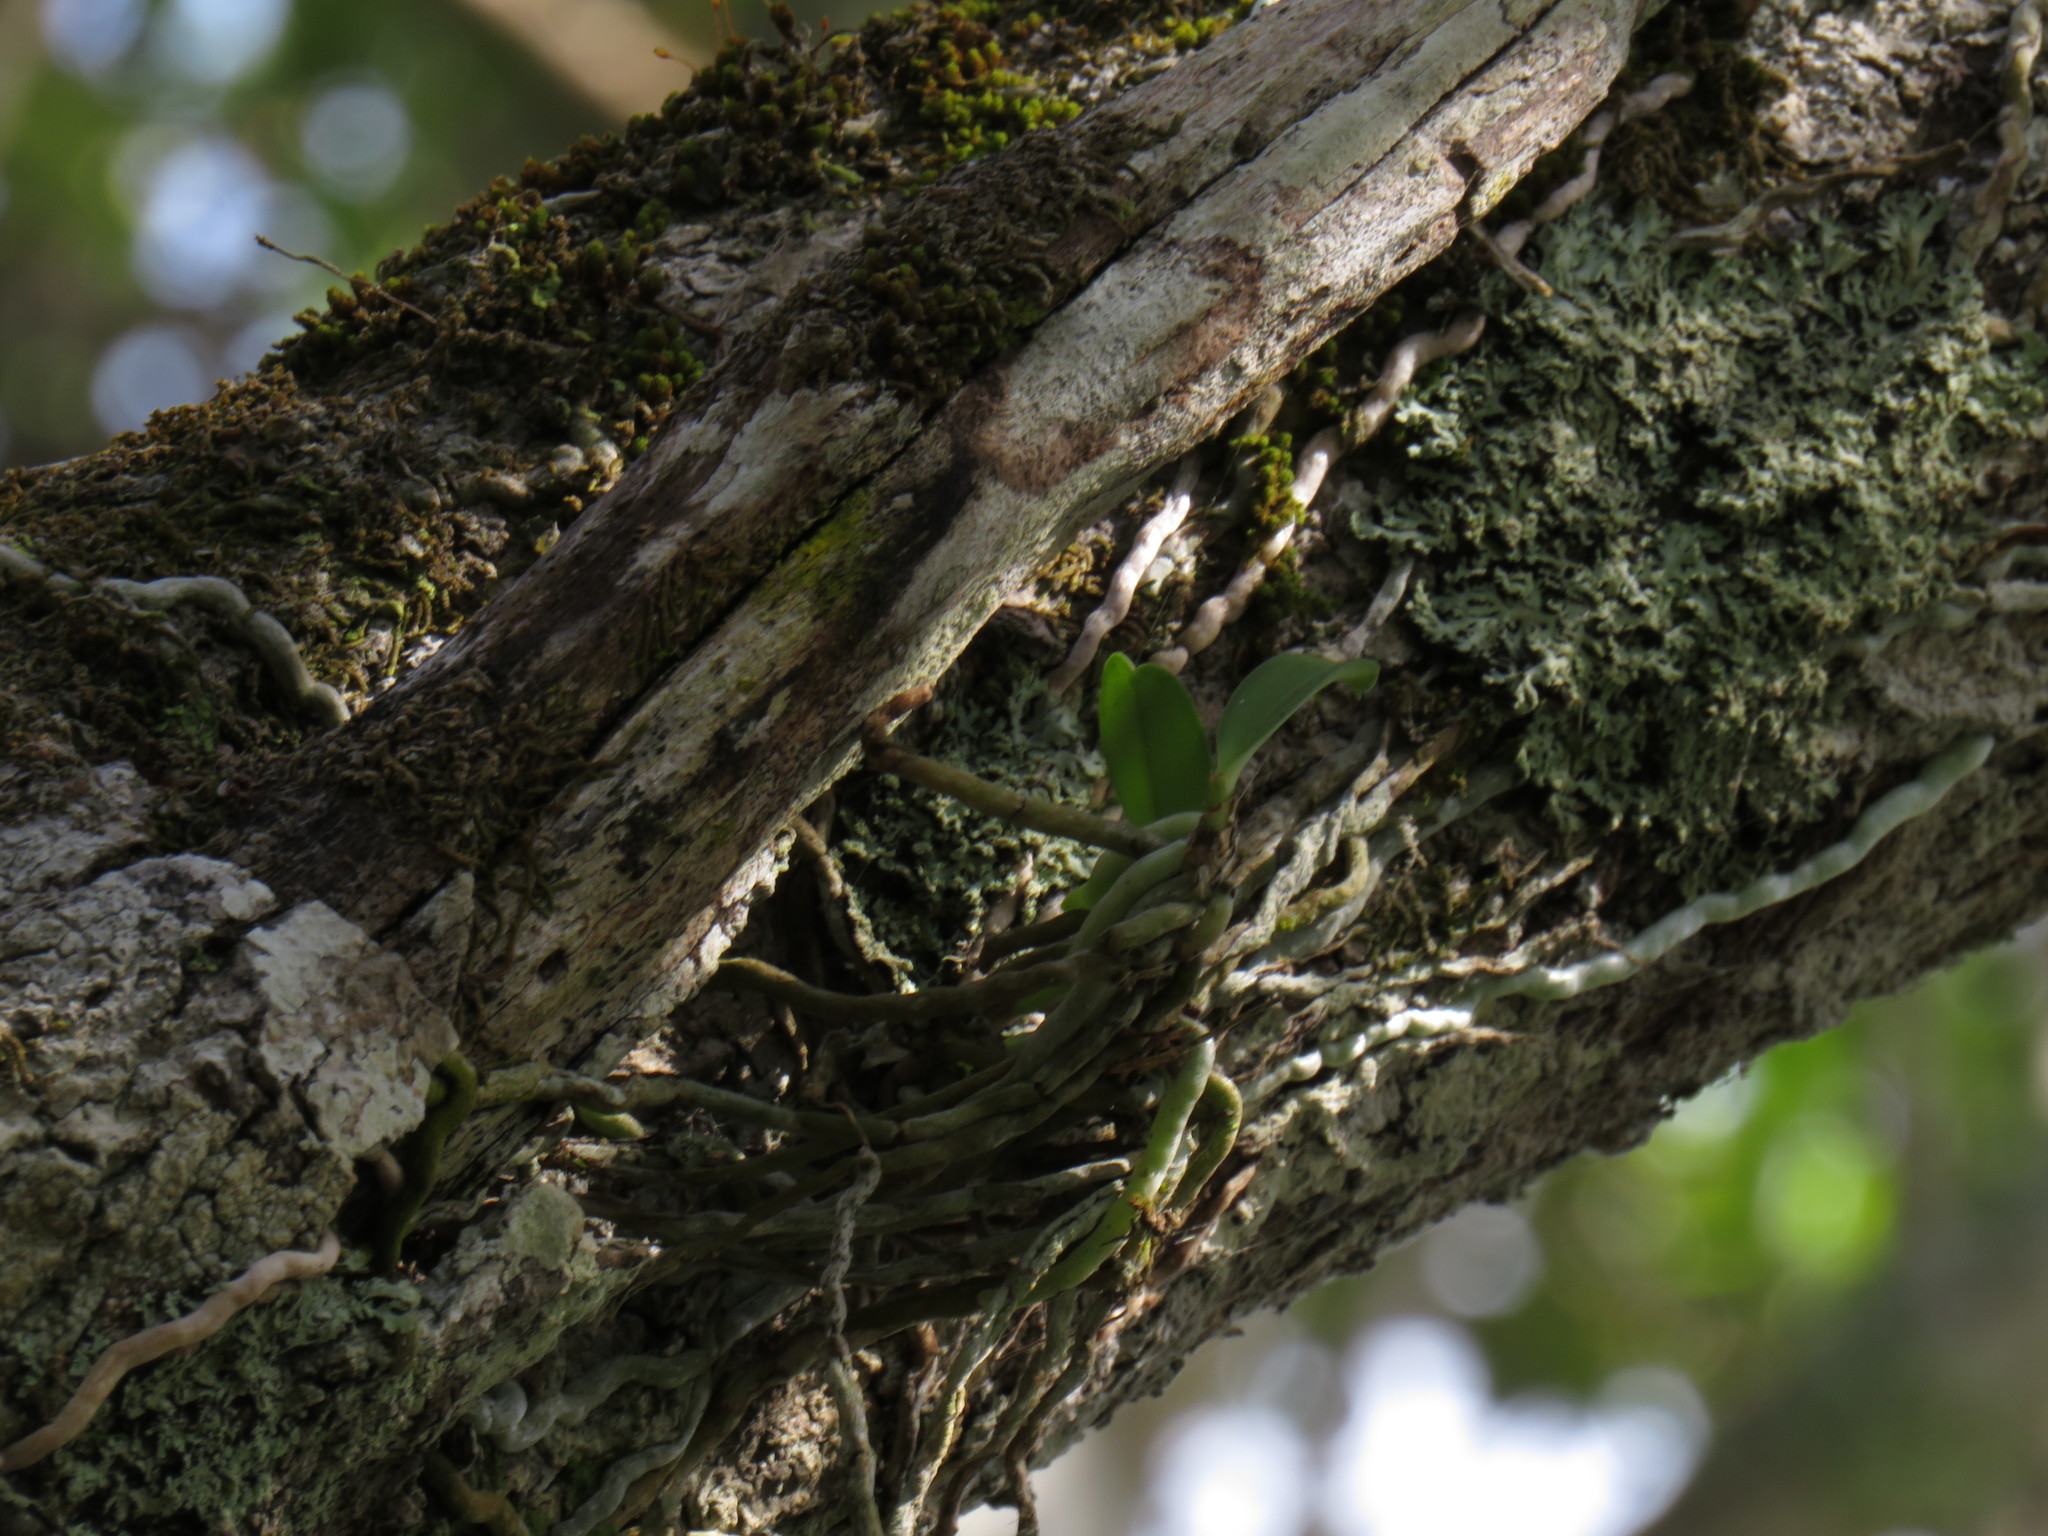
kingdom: Plantae
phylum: Tracheophyta
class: Liliopsida
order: Asparagales
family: Orchidaceae
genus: Mystacidium
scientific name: Mystacidium capense
